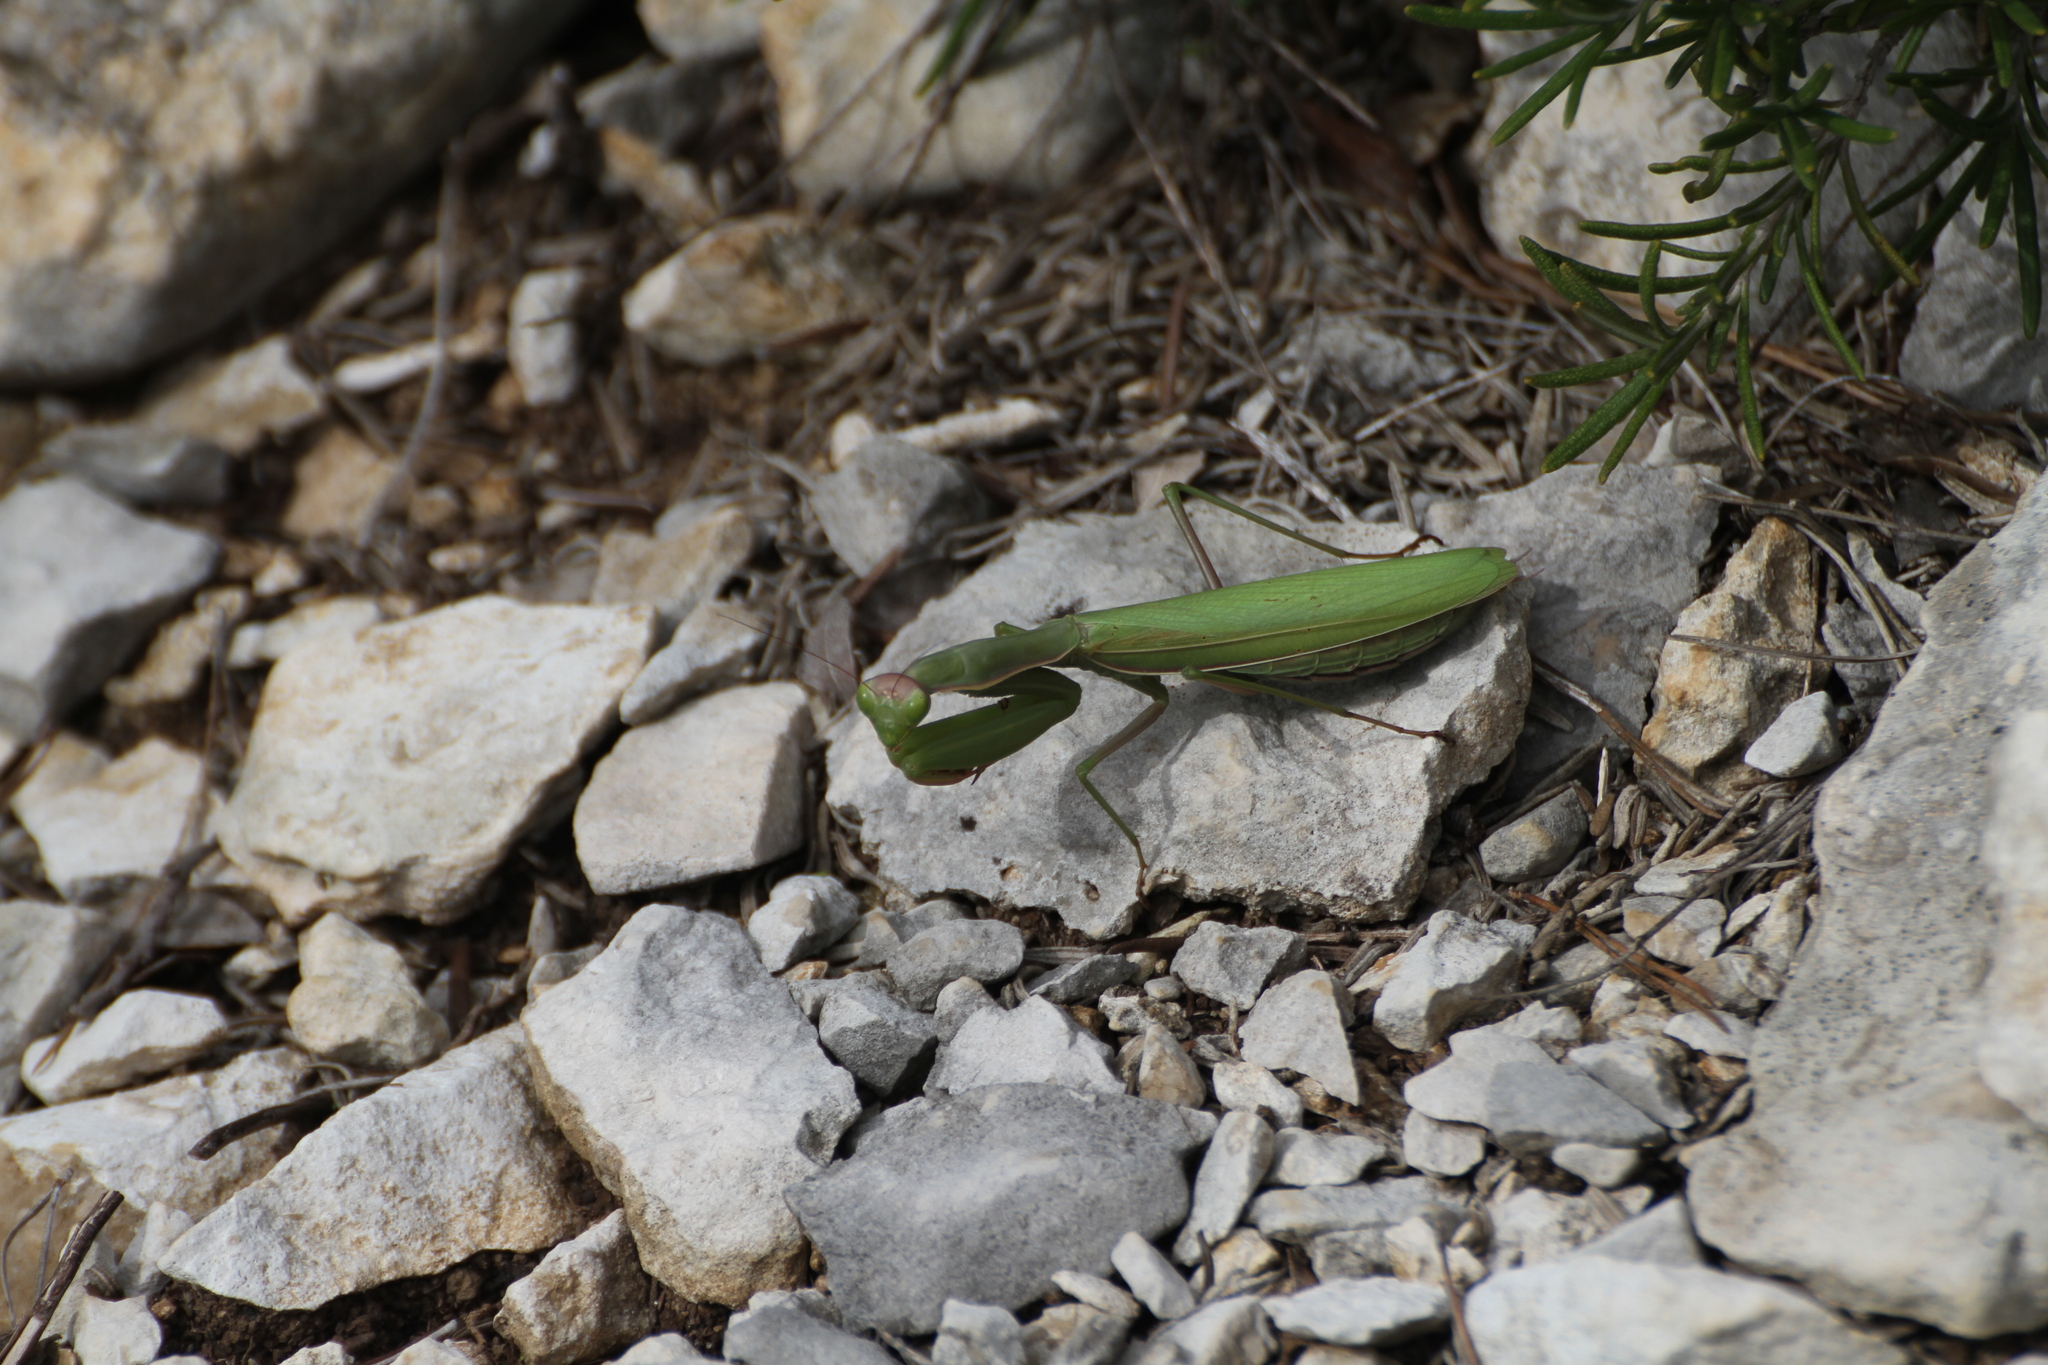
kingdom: Animalia
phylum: Arthropoda
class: Insecta
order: Mantodea
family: Mantidae
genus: Mantis
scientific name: Mantis religiosa
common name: Praying mantis
